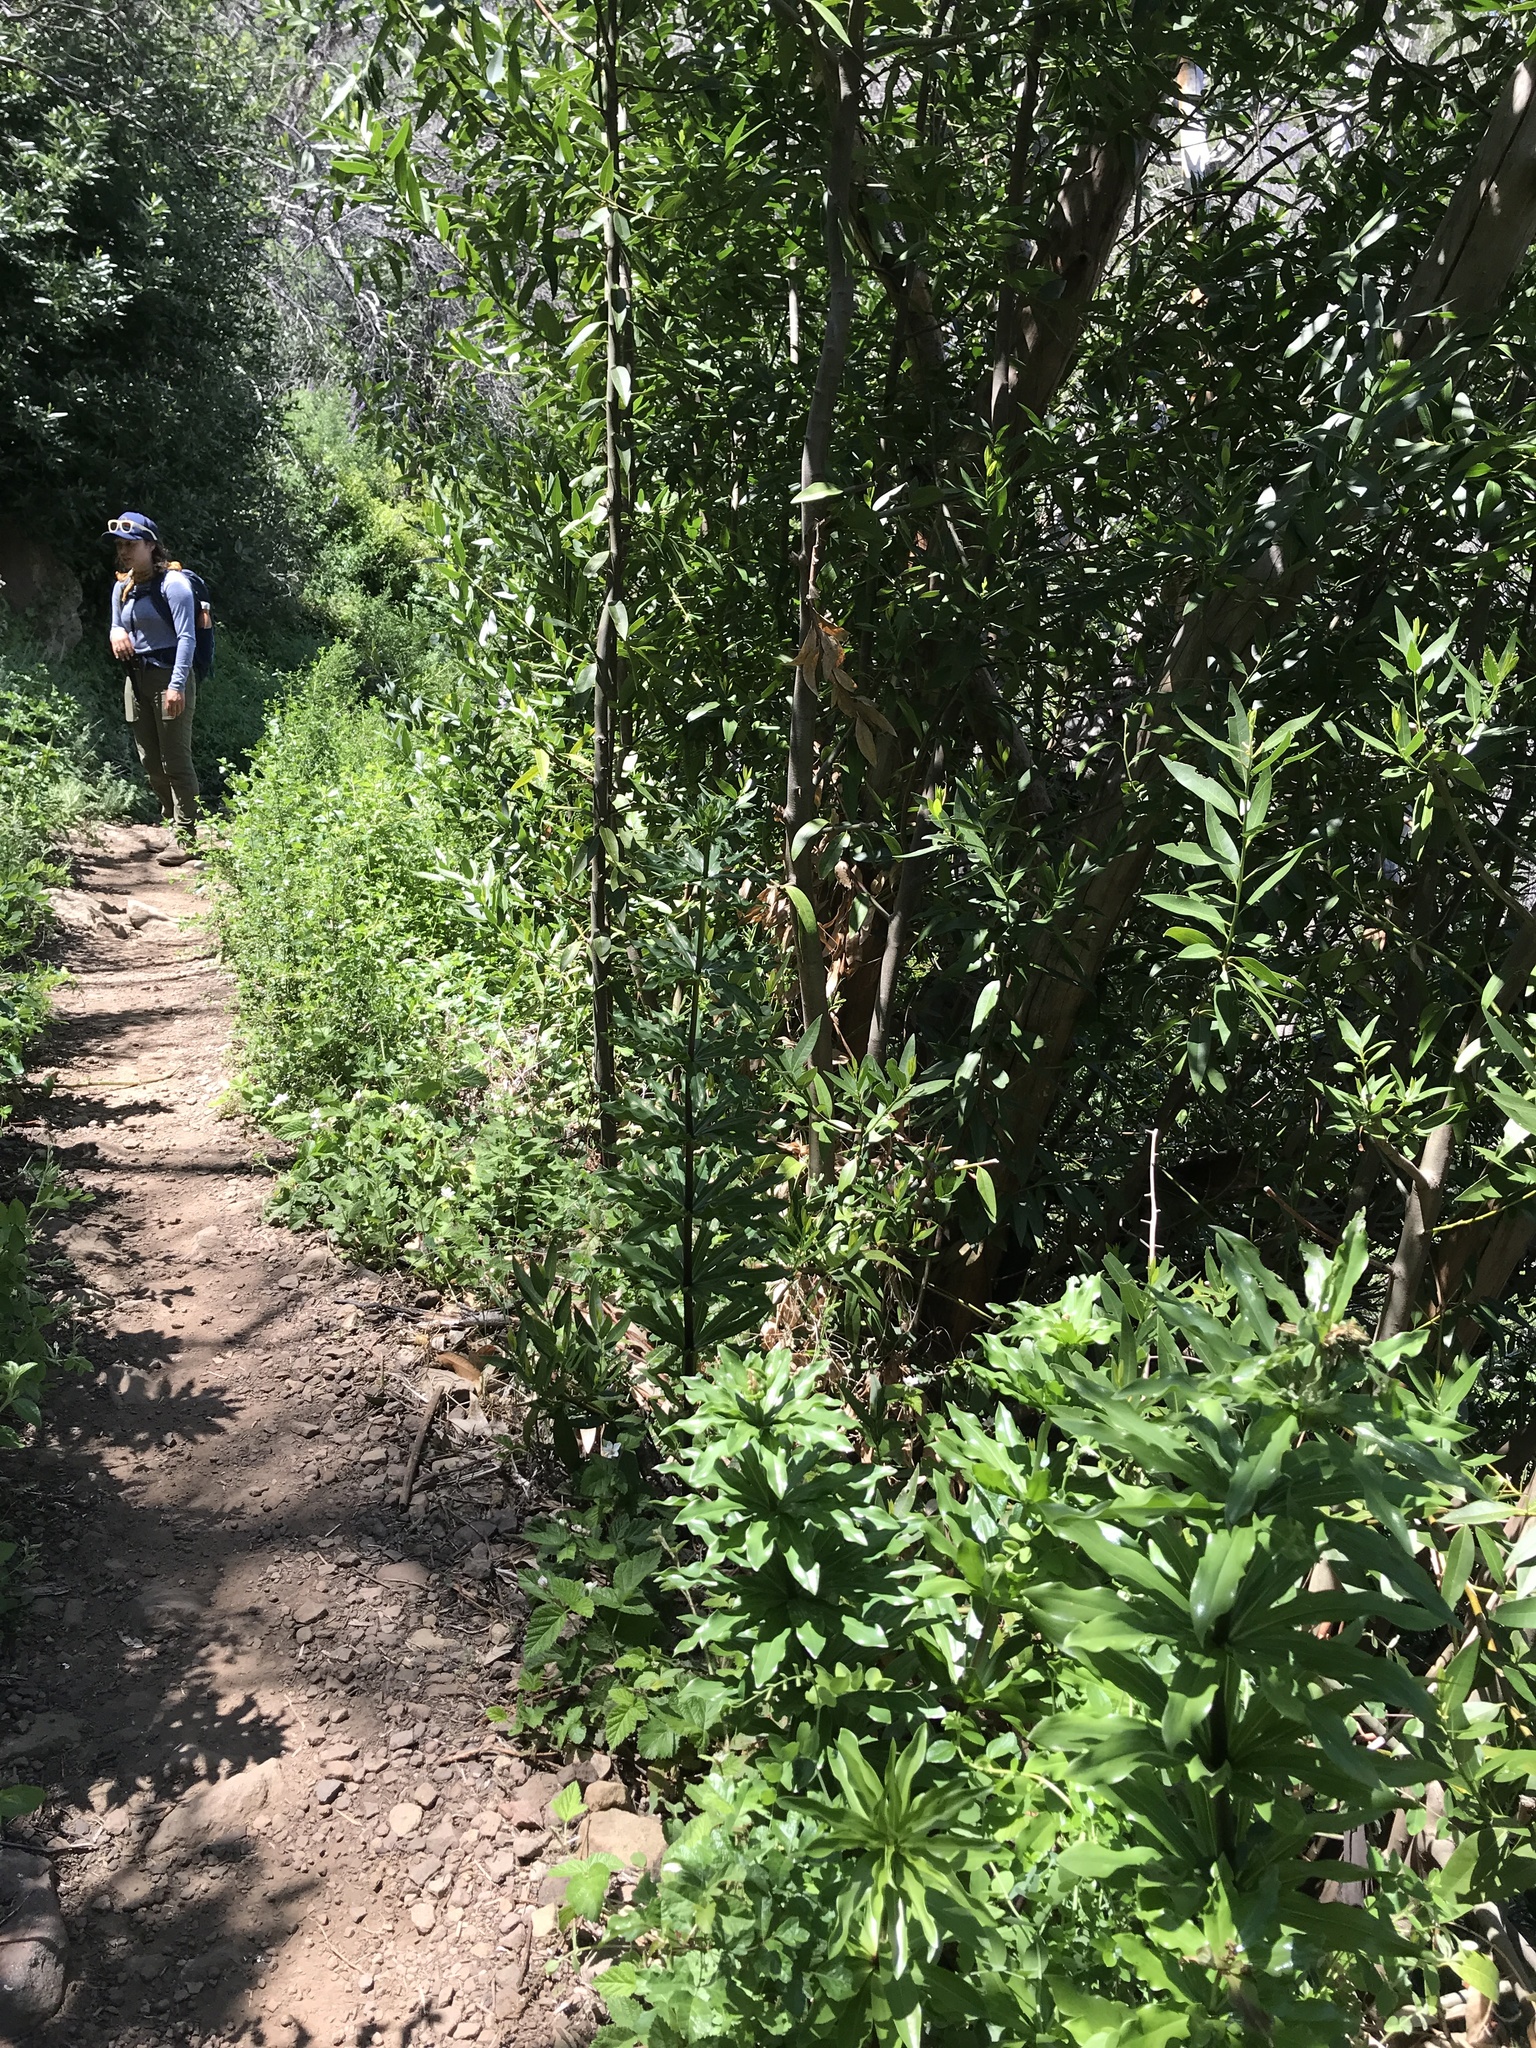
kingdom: Plantae
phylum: Tracheophyta
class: Liliopsida
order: Liliales
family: Liliaceae
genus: Lilium
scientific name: Lilium humboldtii
